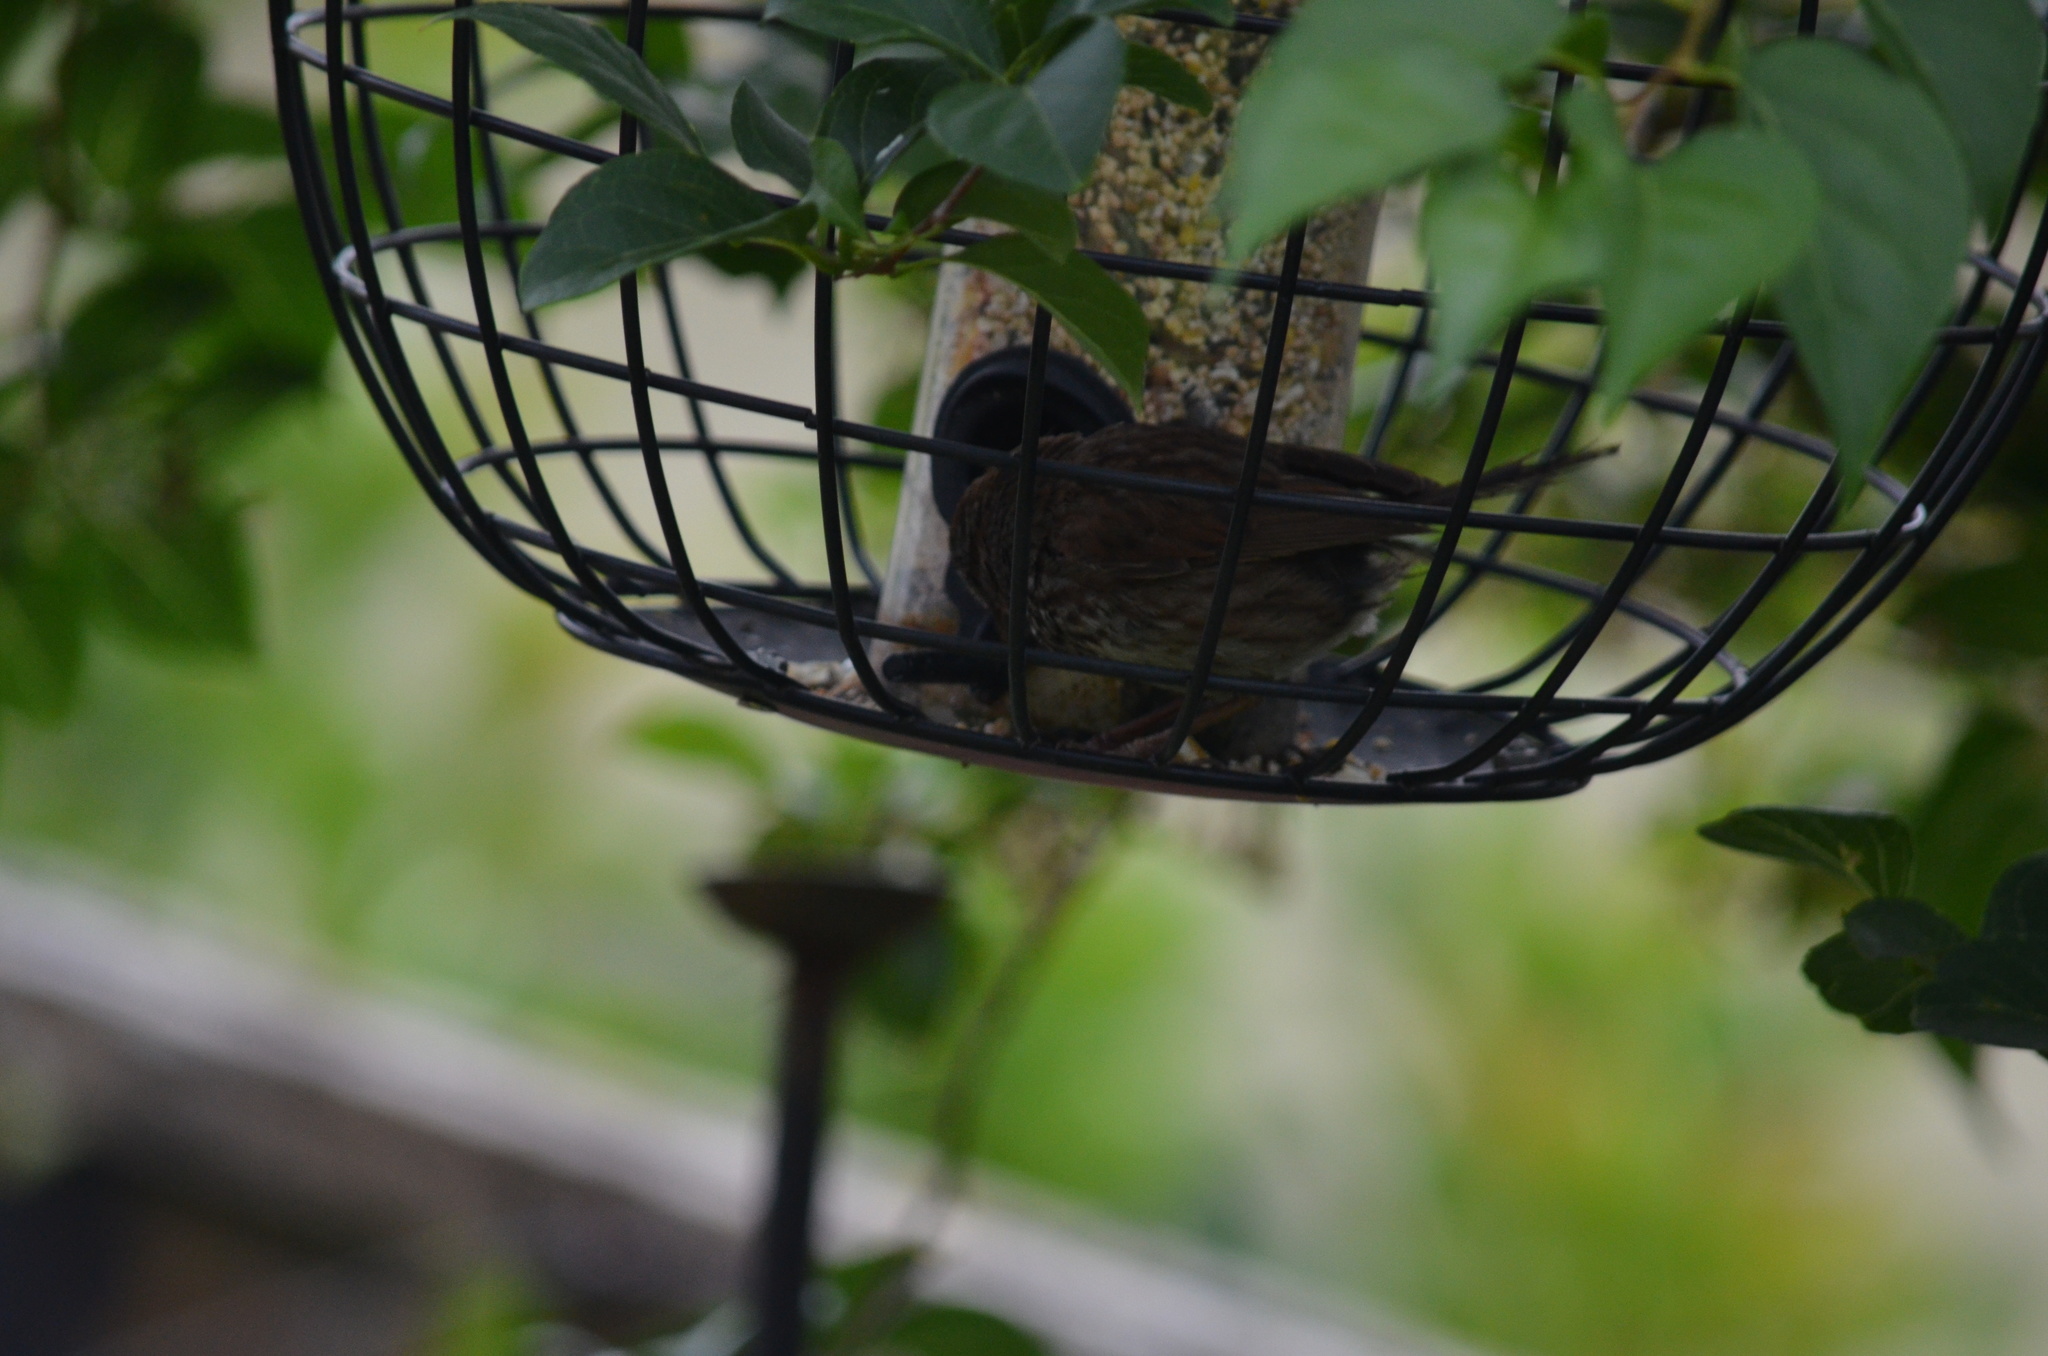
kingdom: Animalia
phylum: Chordata
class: Aves
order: Passeriformes
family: Passerellidae
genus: Melospiza
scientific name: Melospiza melodia
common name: Song sparrow
